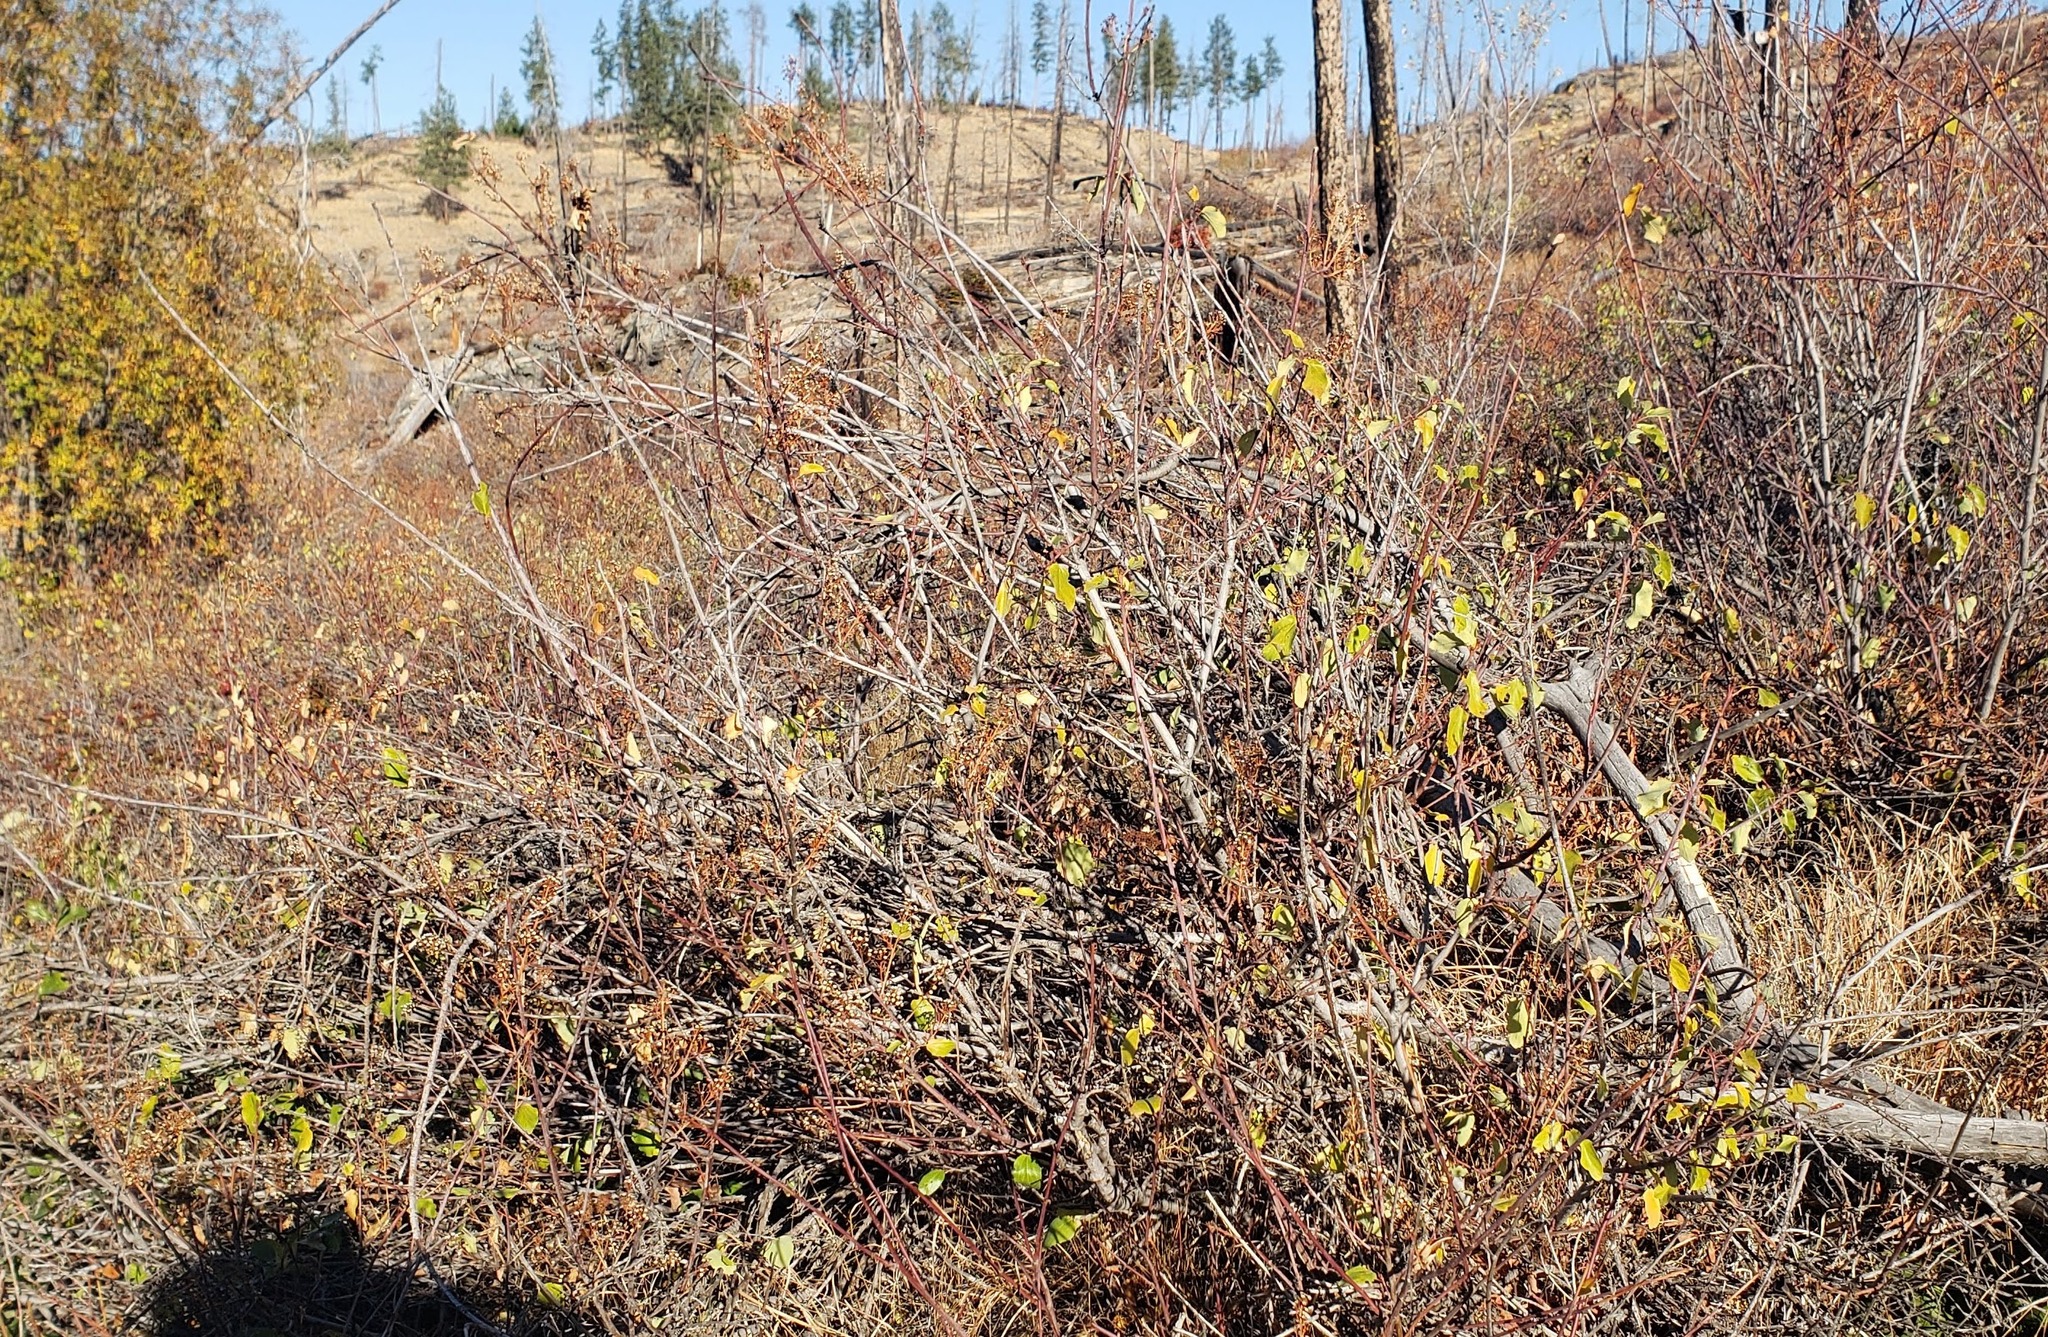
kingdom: Plantae
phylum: Tracheophyta
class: Magnoliopsida
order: Rosales
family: Rhamnaceae
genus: Ceanothus
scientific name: Ceanothus sanguineus
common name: Teatree
